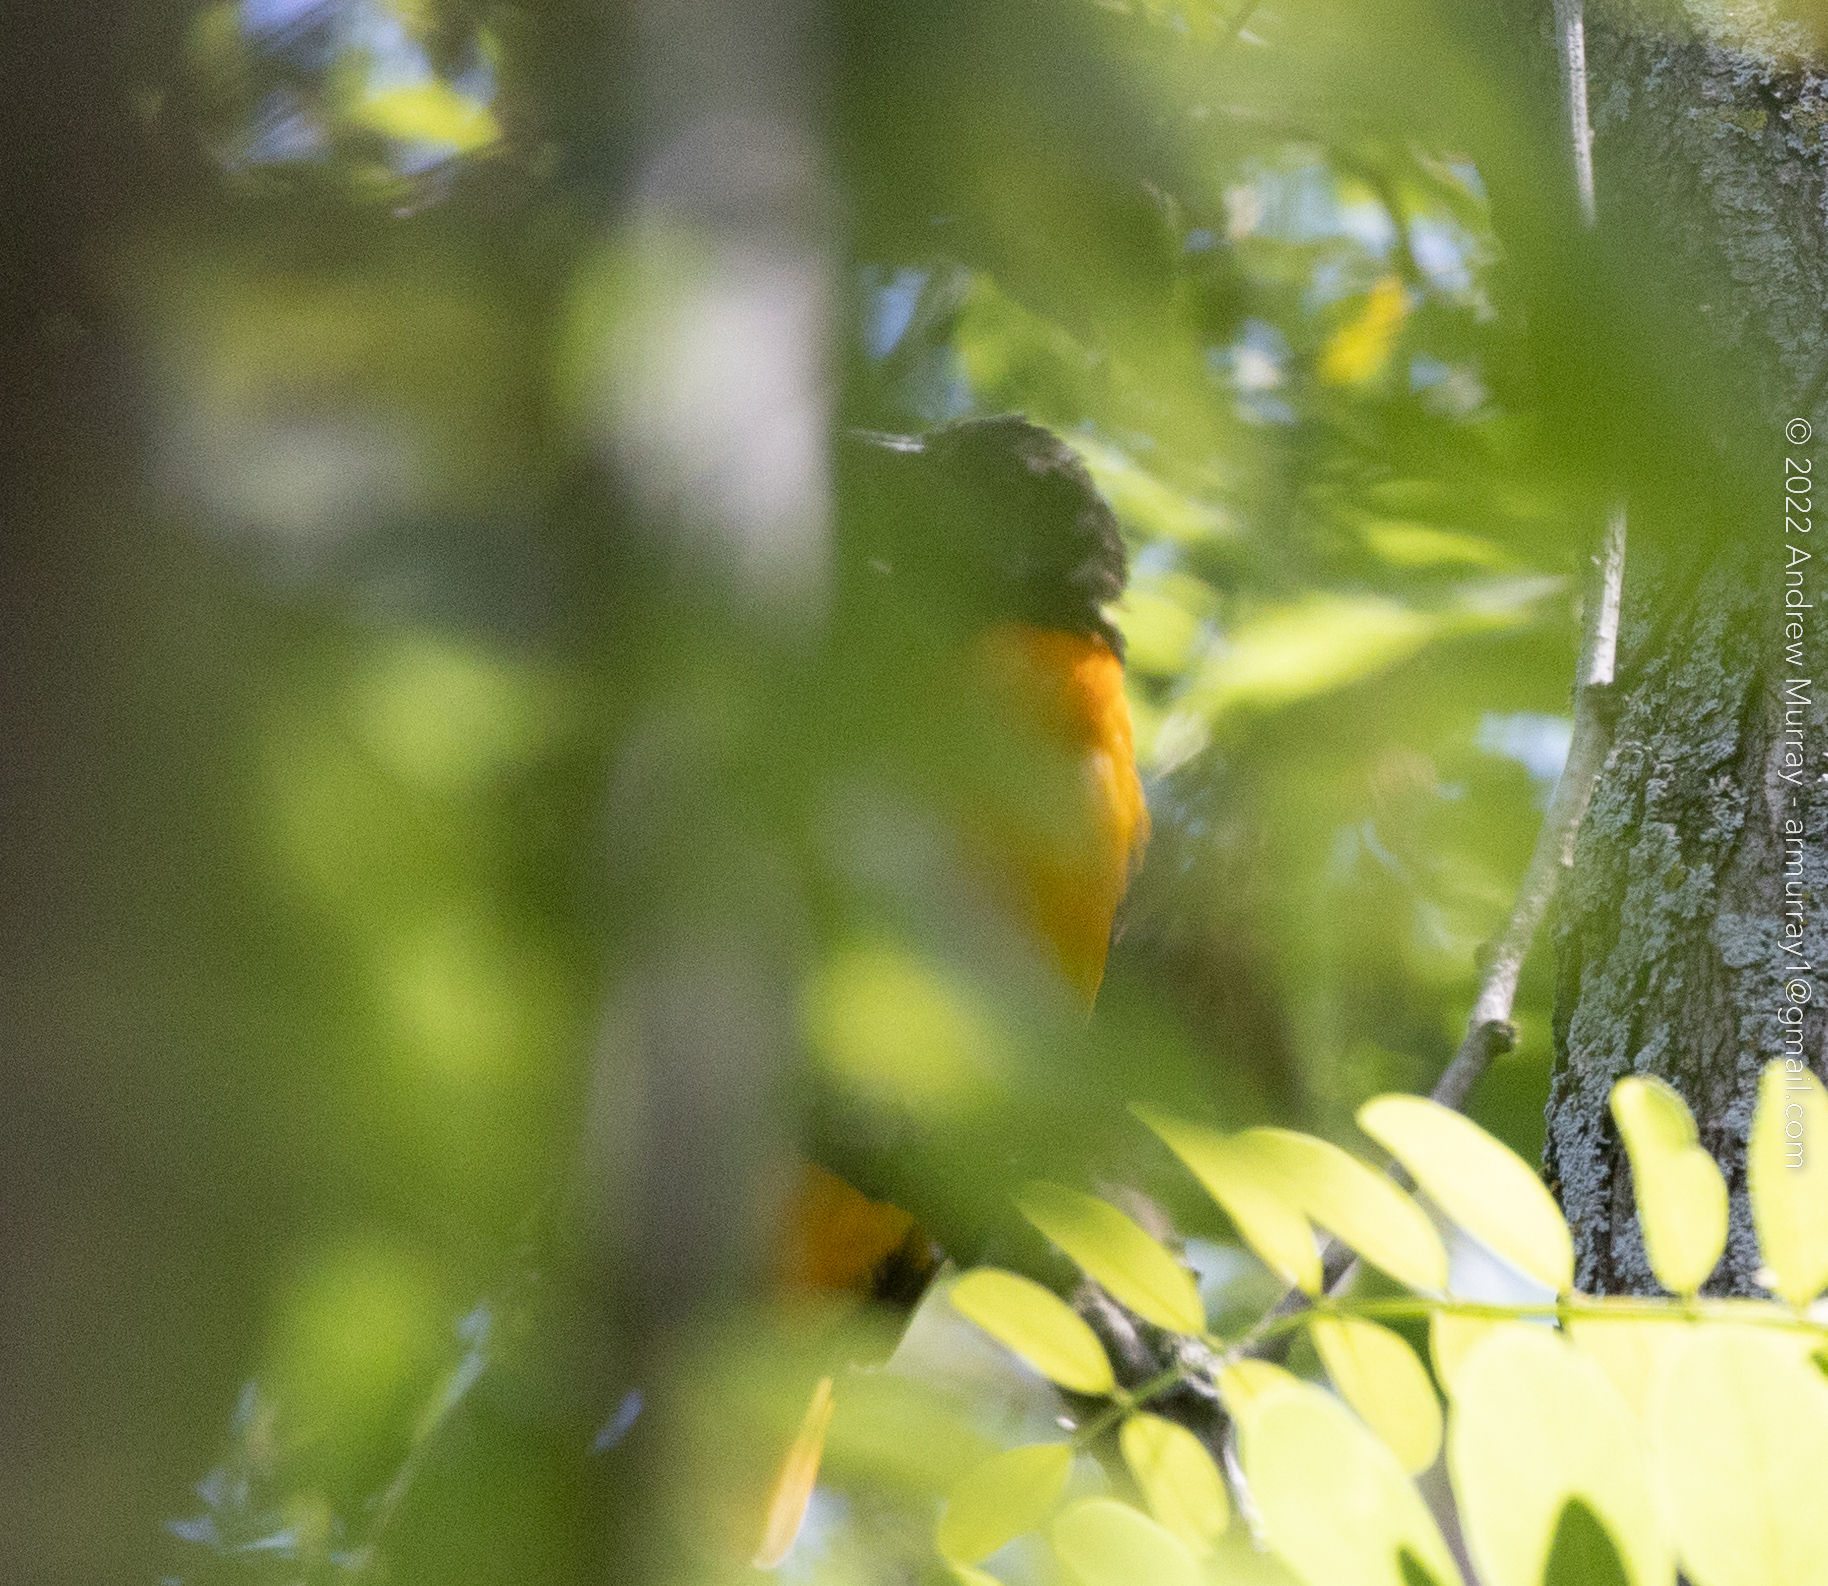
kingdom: Animalia
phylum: Chordata
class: Aves
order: Passeriformes
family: Icteridae
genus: Icterus
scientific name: Icterus galbula
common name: Baltimore oriole
